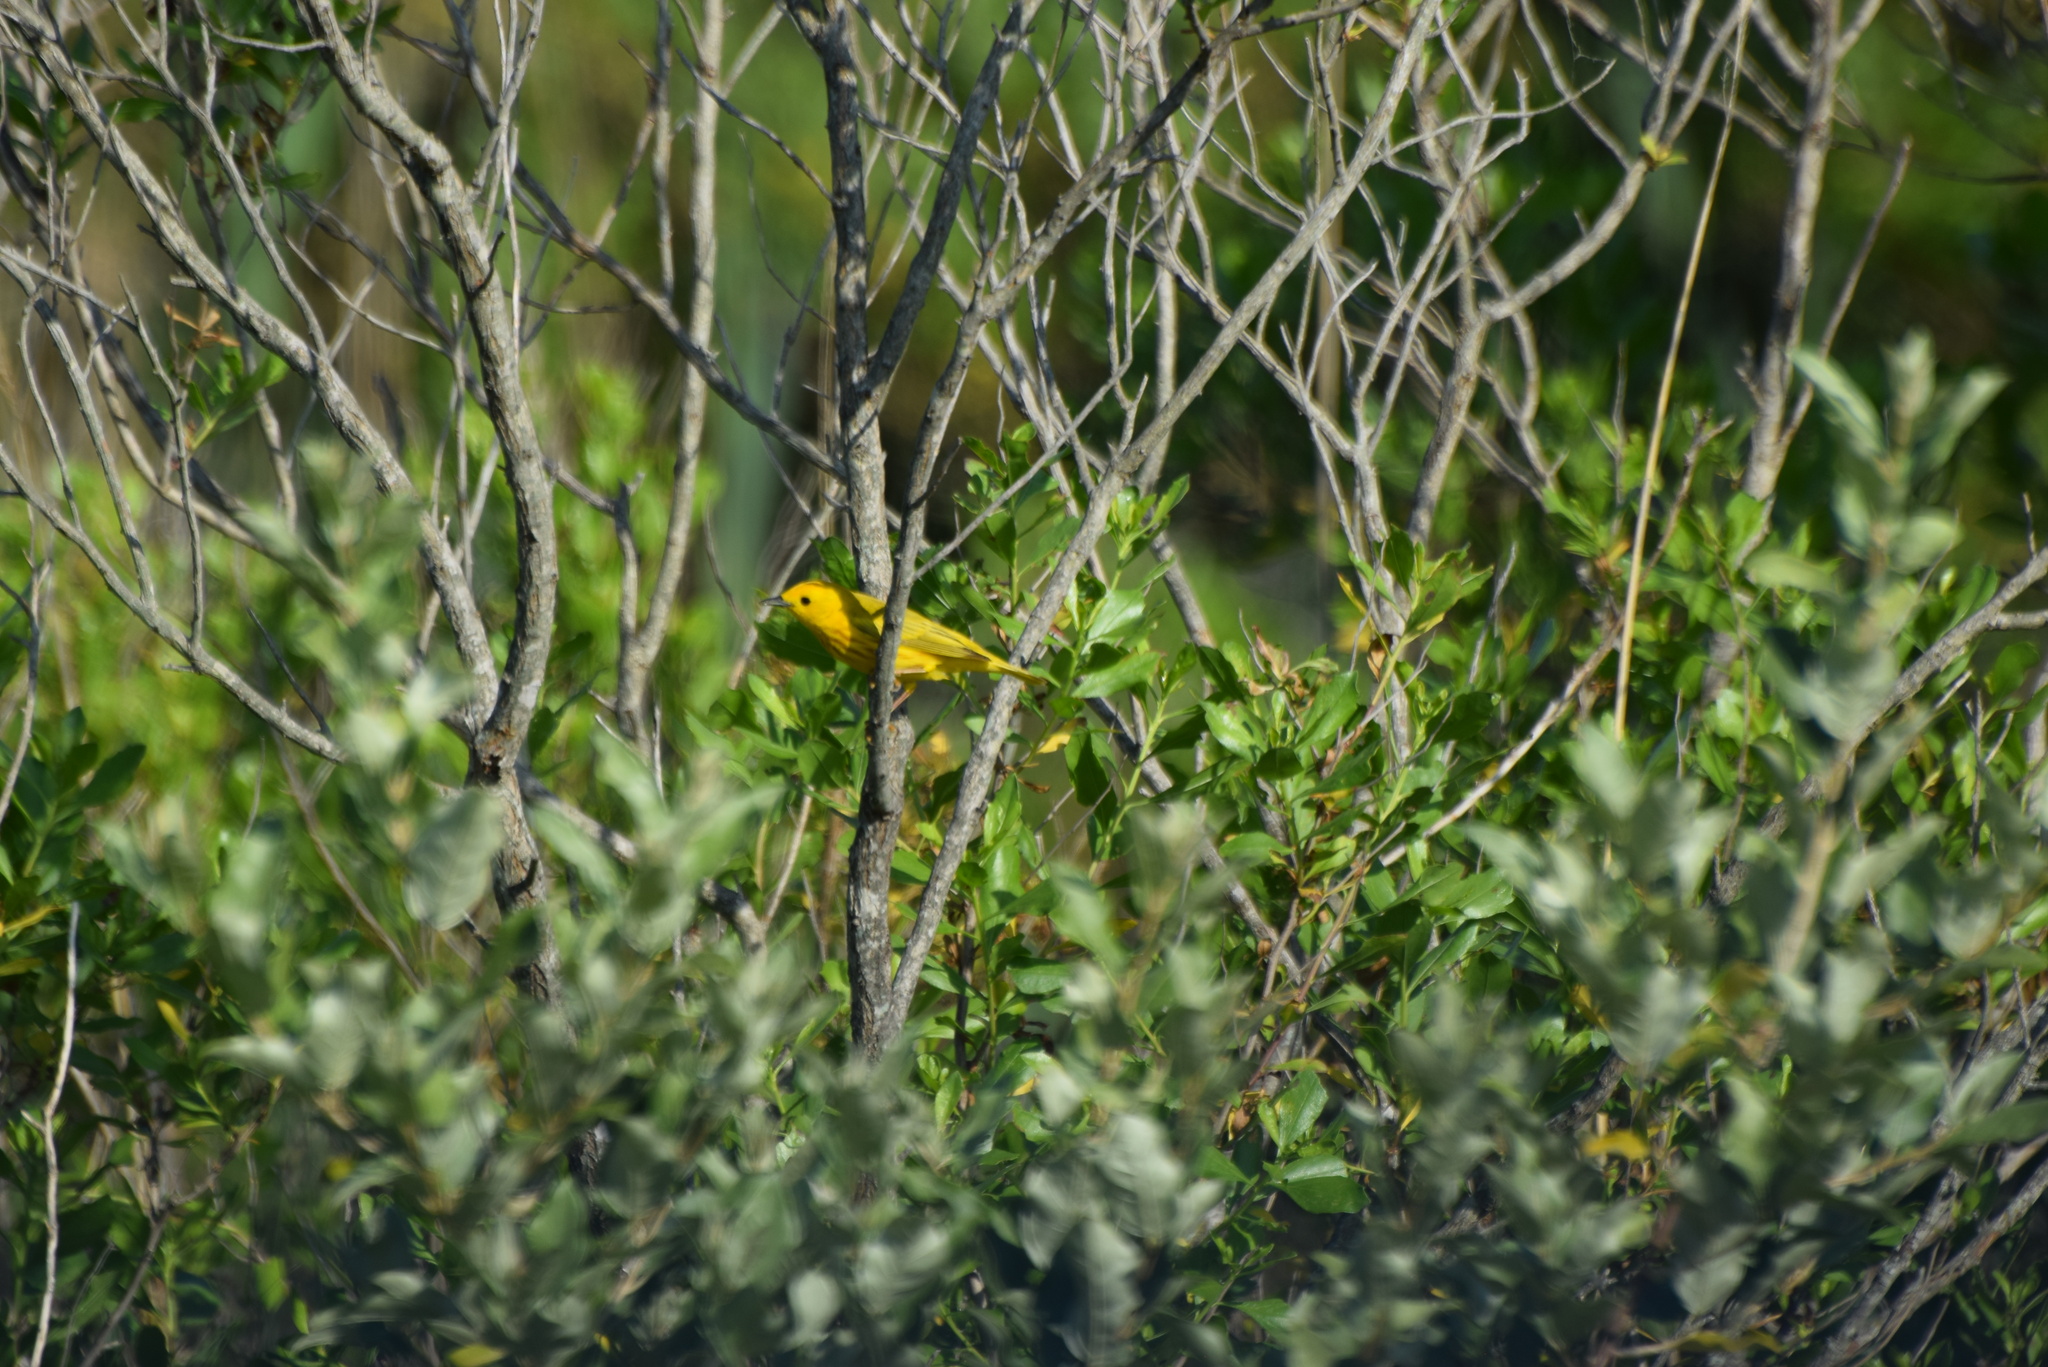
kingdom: Animalia
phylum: Chordata
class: Aves
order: Passeriformes
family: Parulidae
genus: Setophaga
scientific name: Setophaga petechia
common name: Yellow warbler
